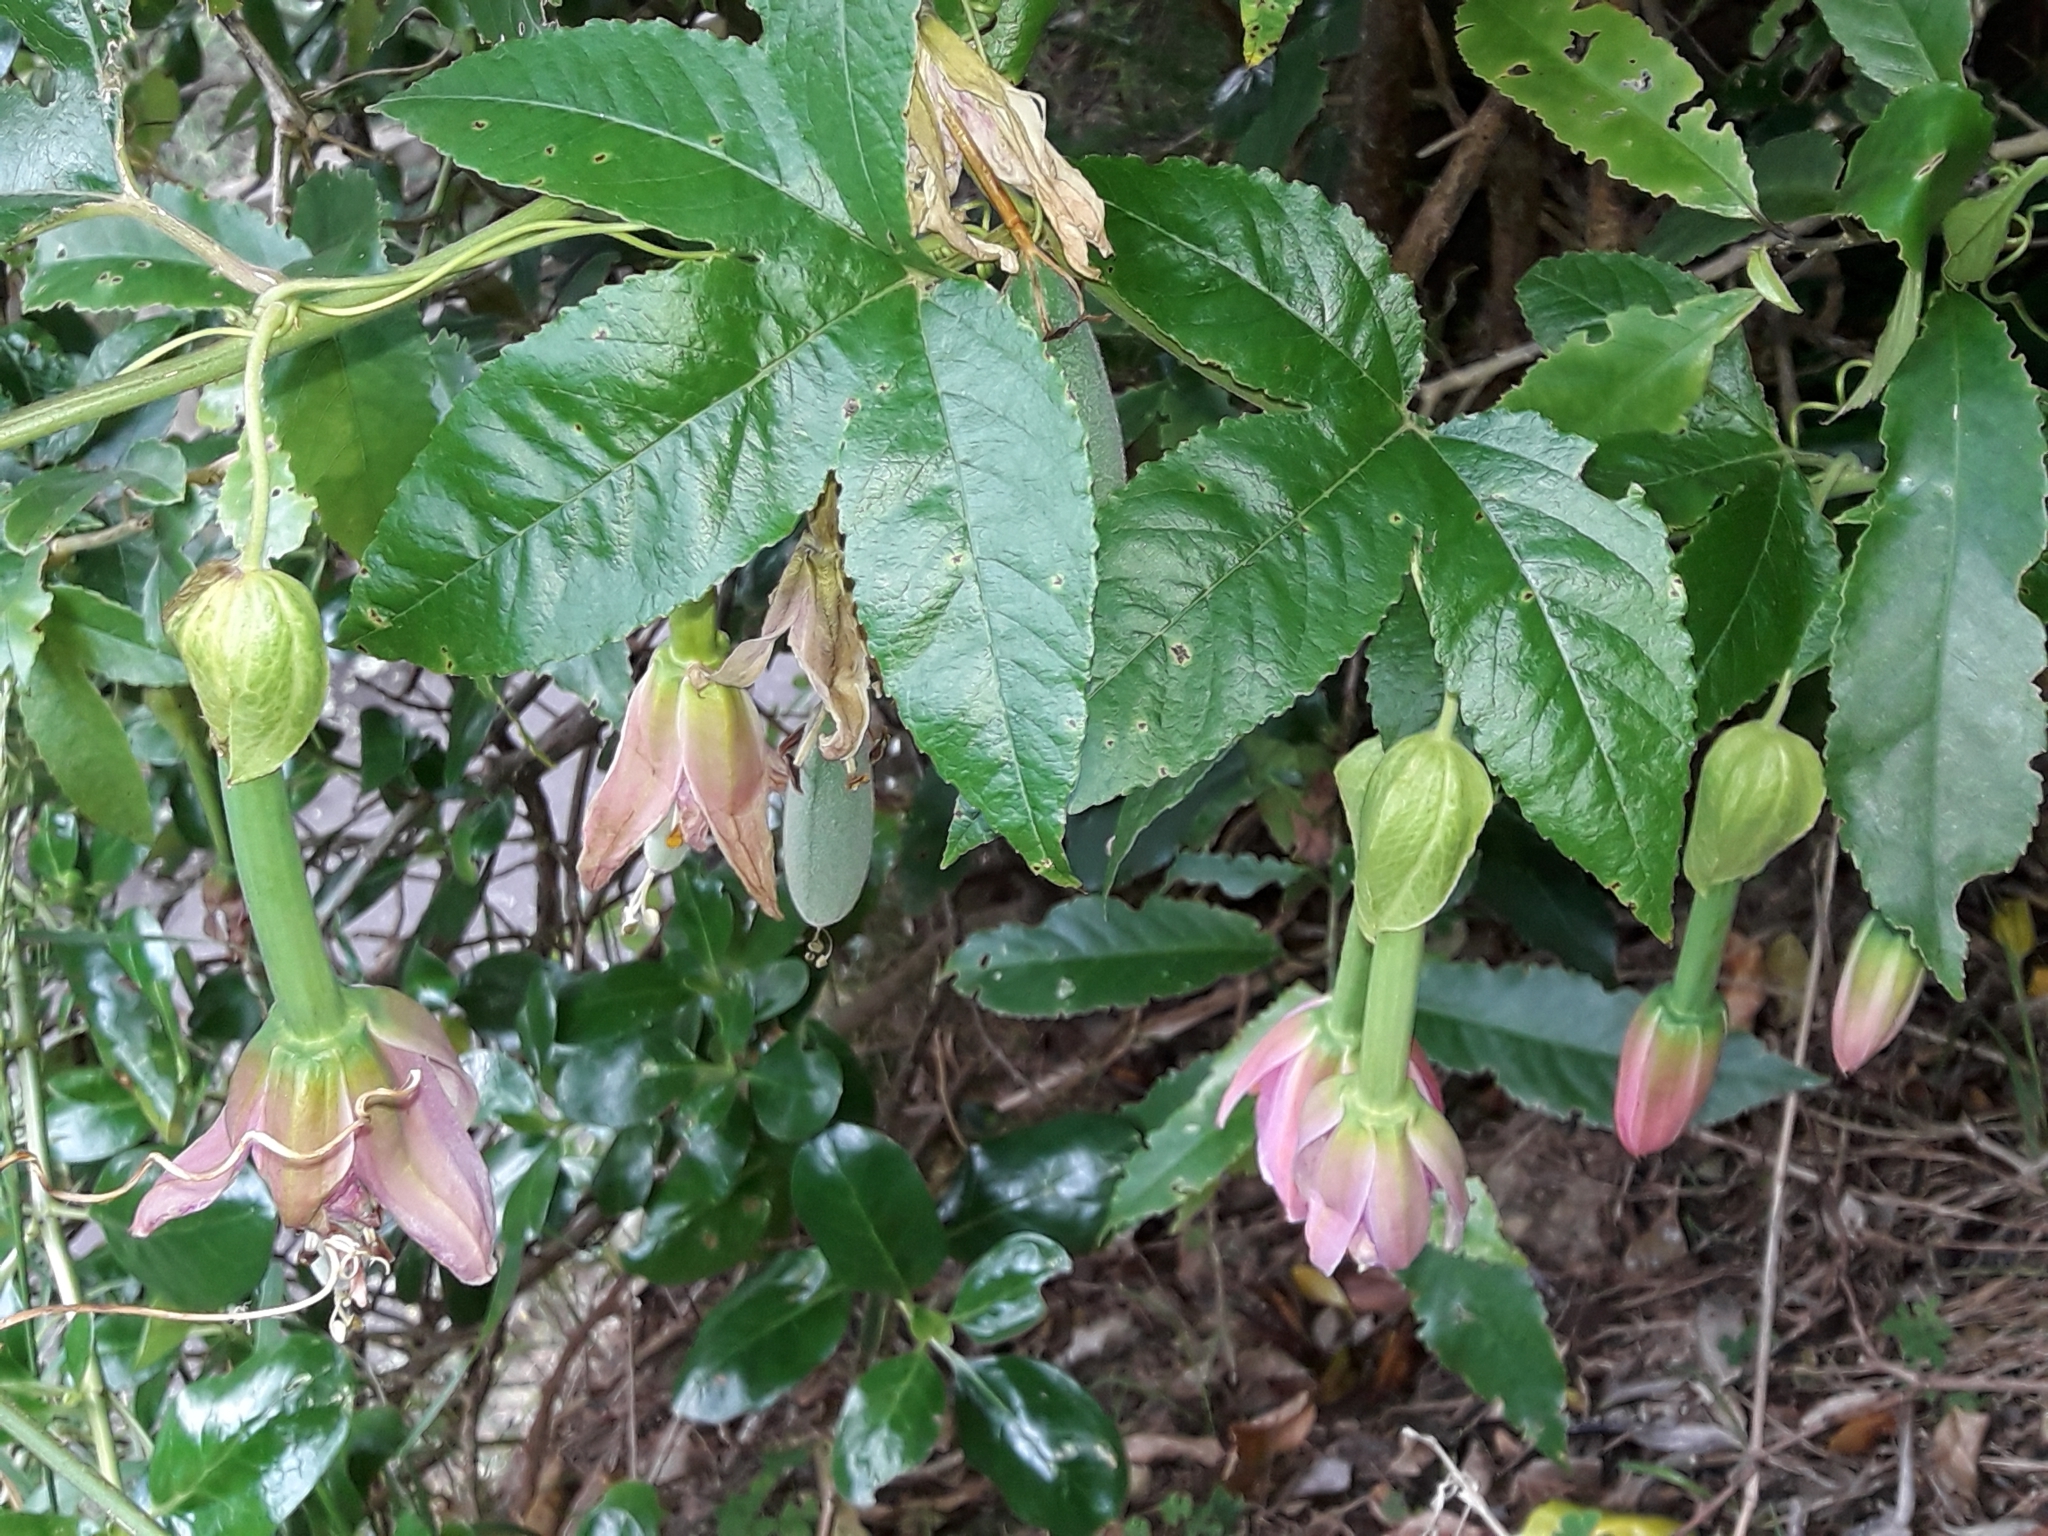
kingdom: Plantae
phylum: Tracheophyta
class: Magnoliopsida
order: Malpighiales
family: Passifloraceae
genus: Passiflora
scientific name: Passiflora tarminiana
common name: Banana poka
